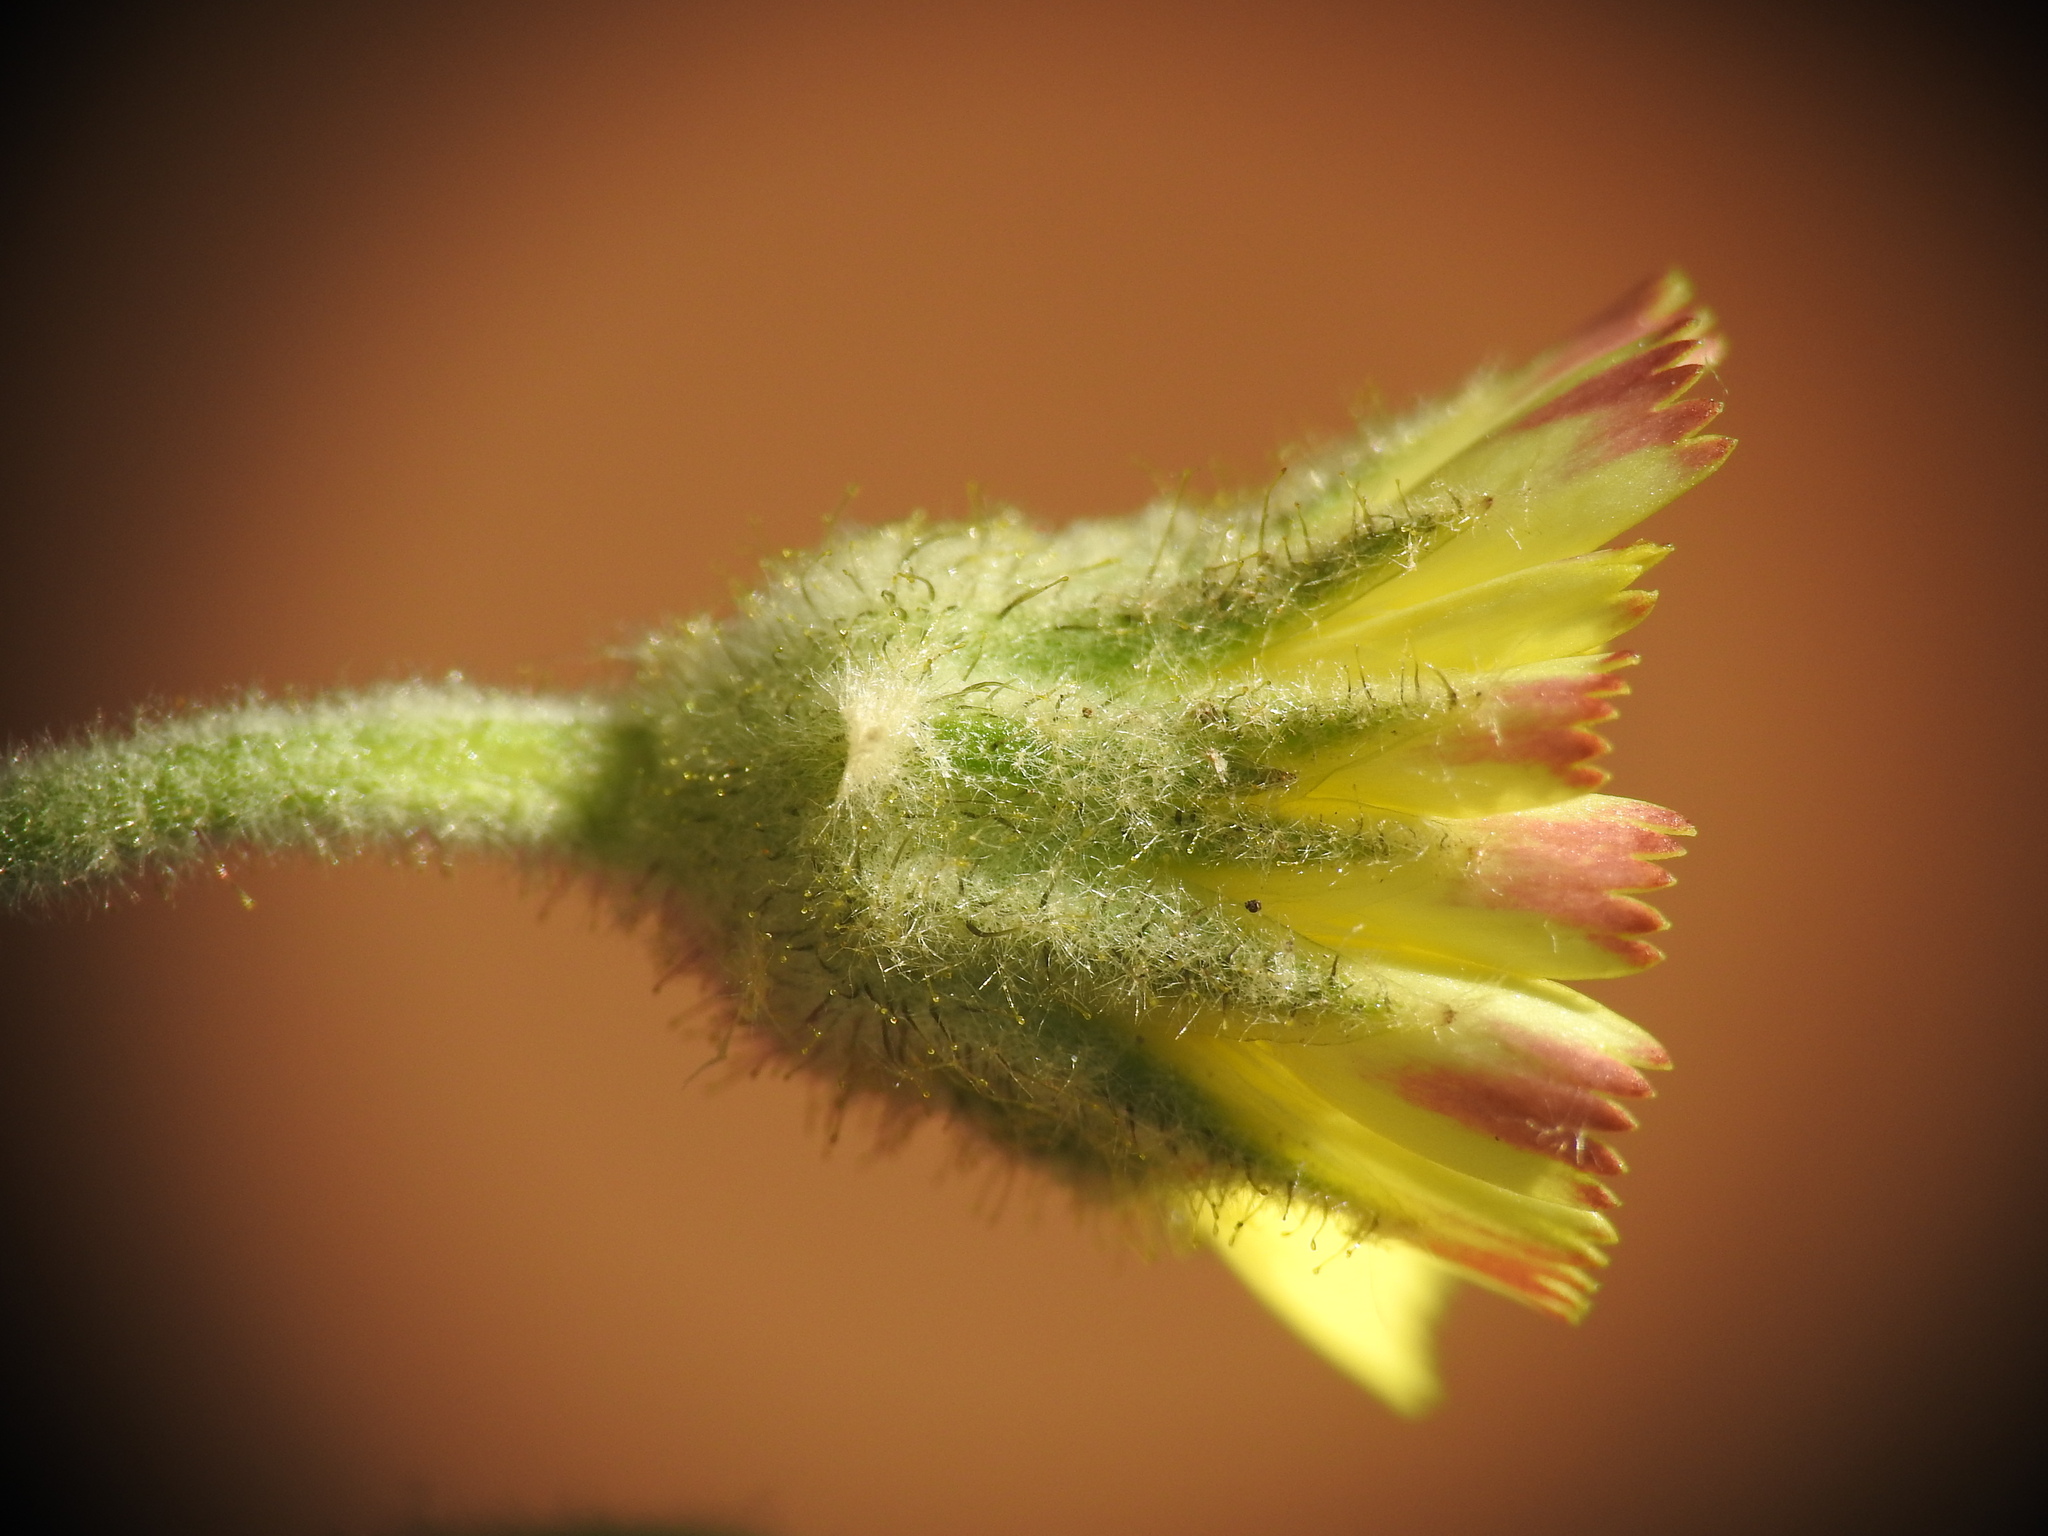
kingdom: Plantae
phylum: Tracheophyta
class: Magnoliopsida
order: Asterales
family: Asteraceae
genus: Andryala
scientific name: Andryala integrifolia
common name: Common andryala
